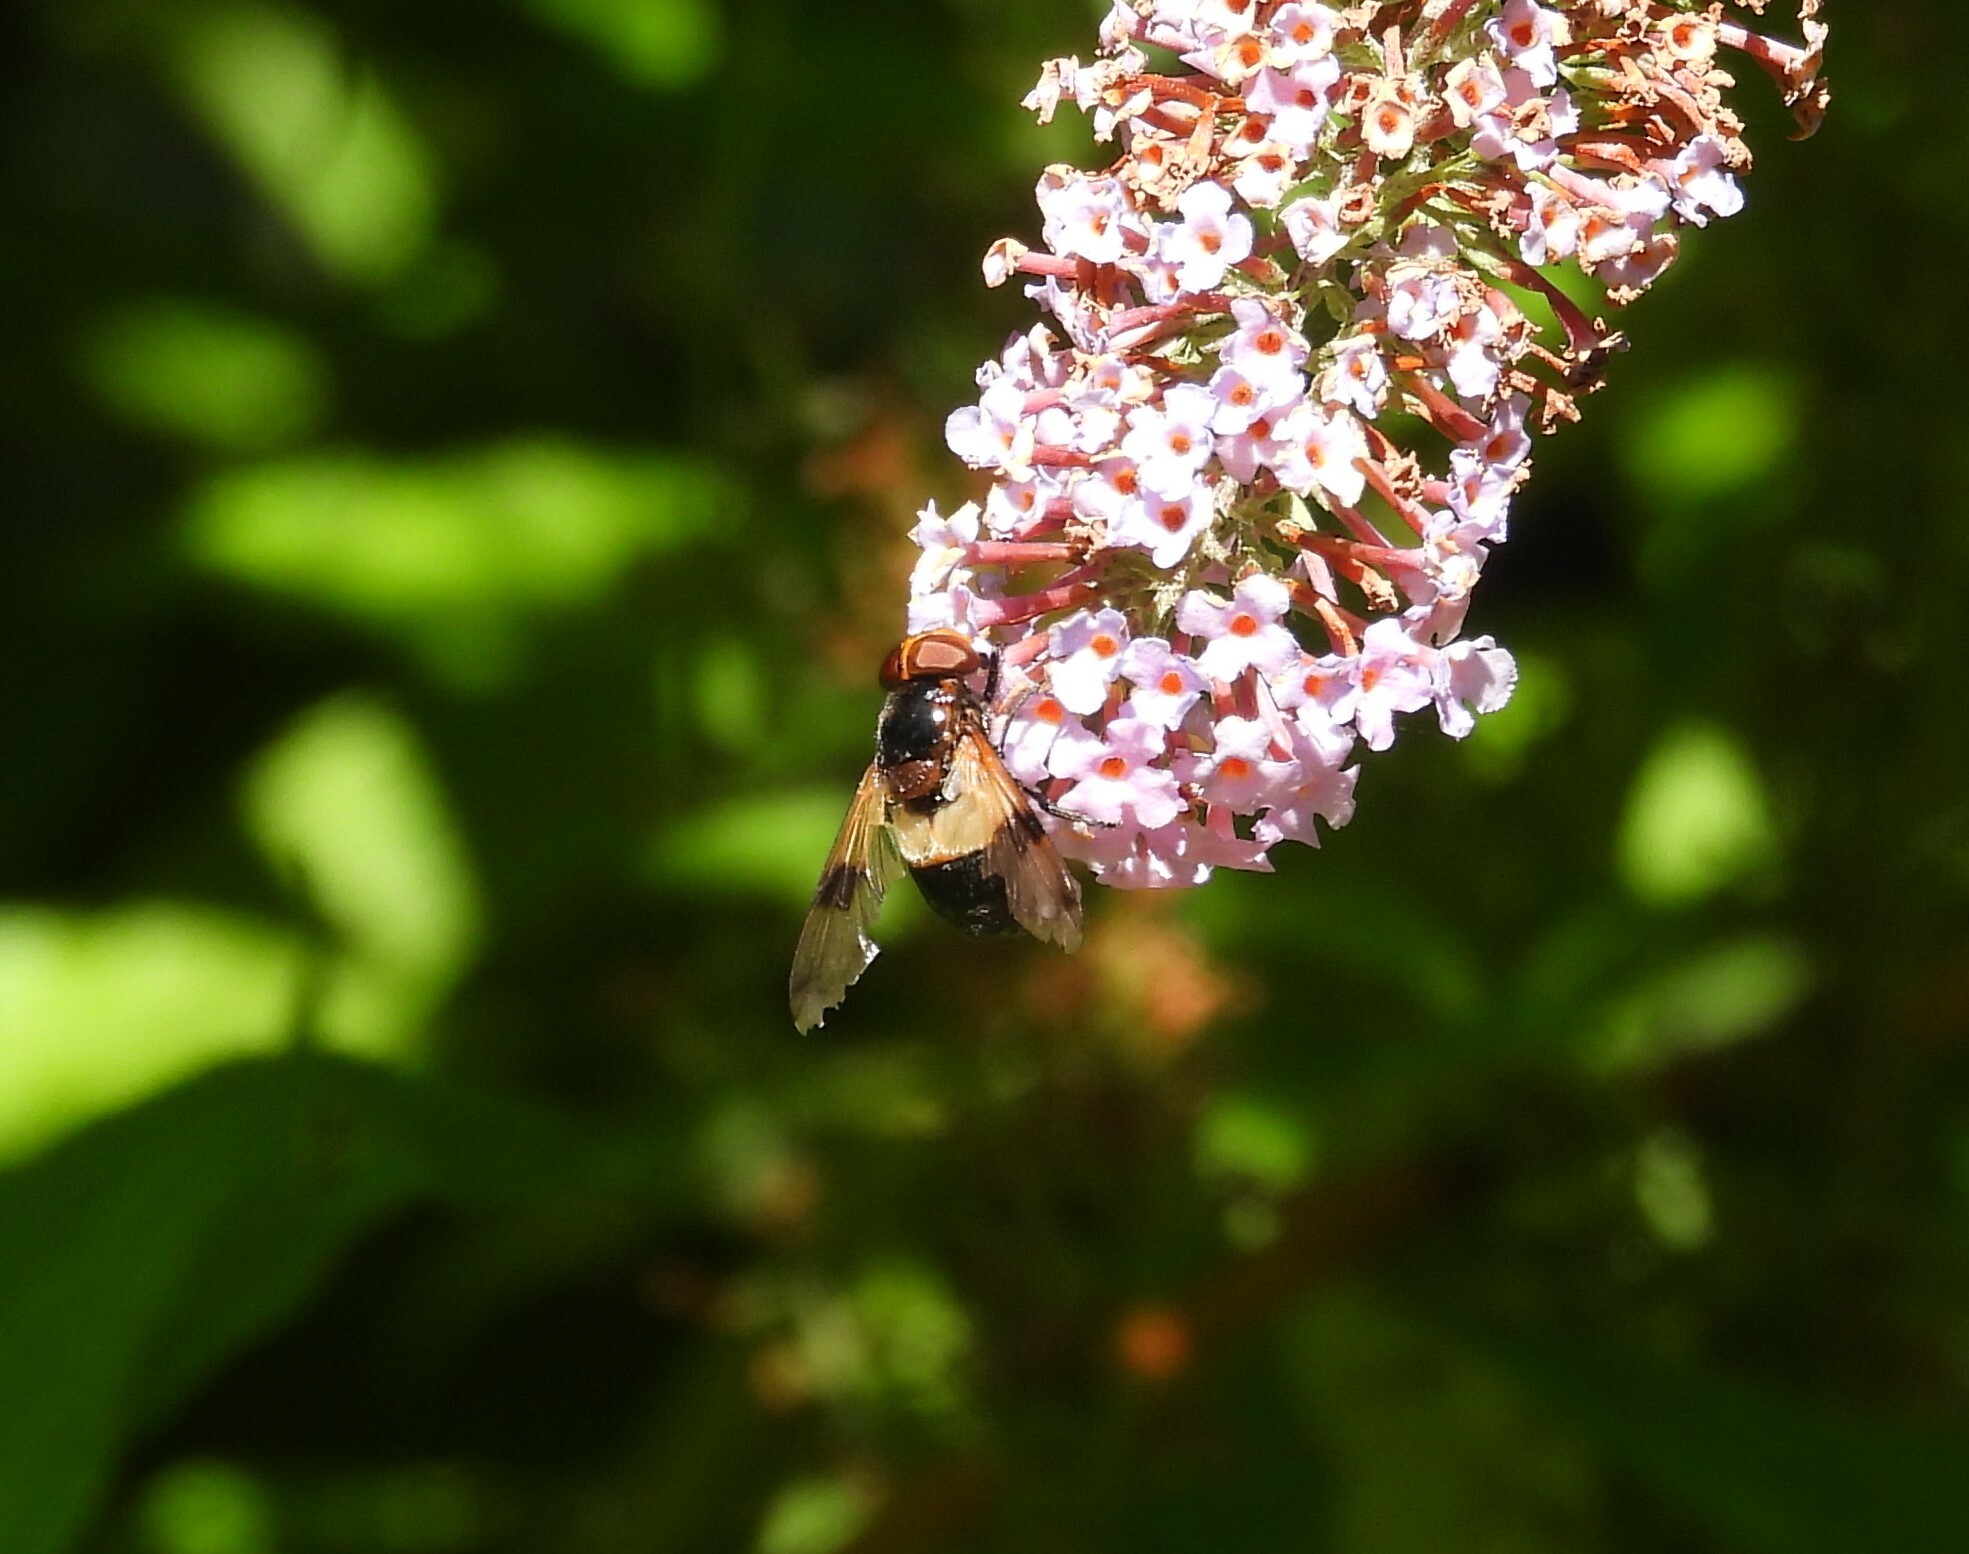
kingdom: Animalia
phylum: Arthropoda
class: Insecta
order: Diptera
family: Syrphidae
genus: Volucella
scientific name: Volucella pellucens
